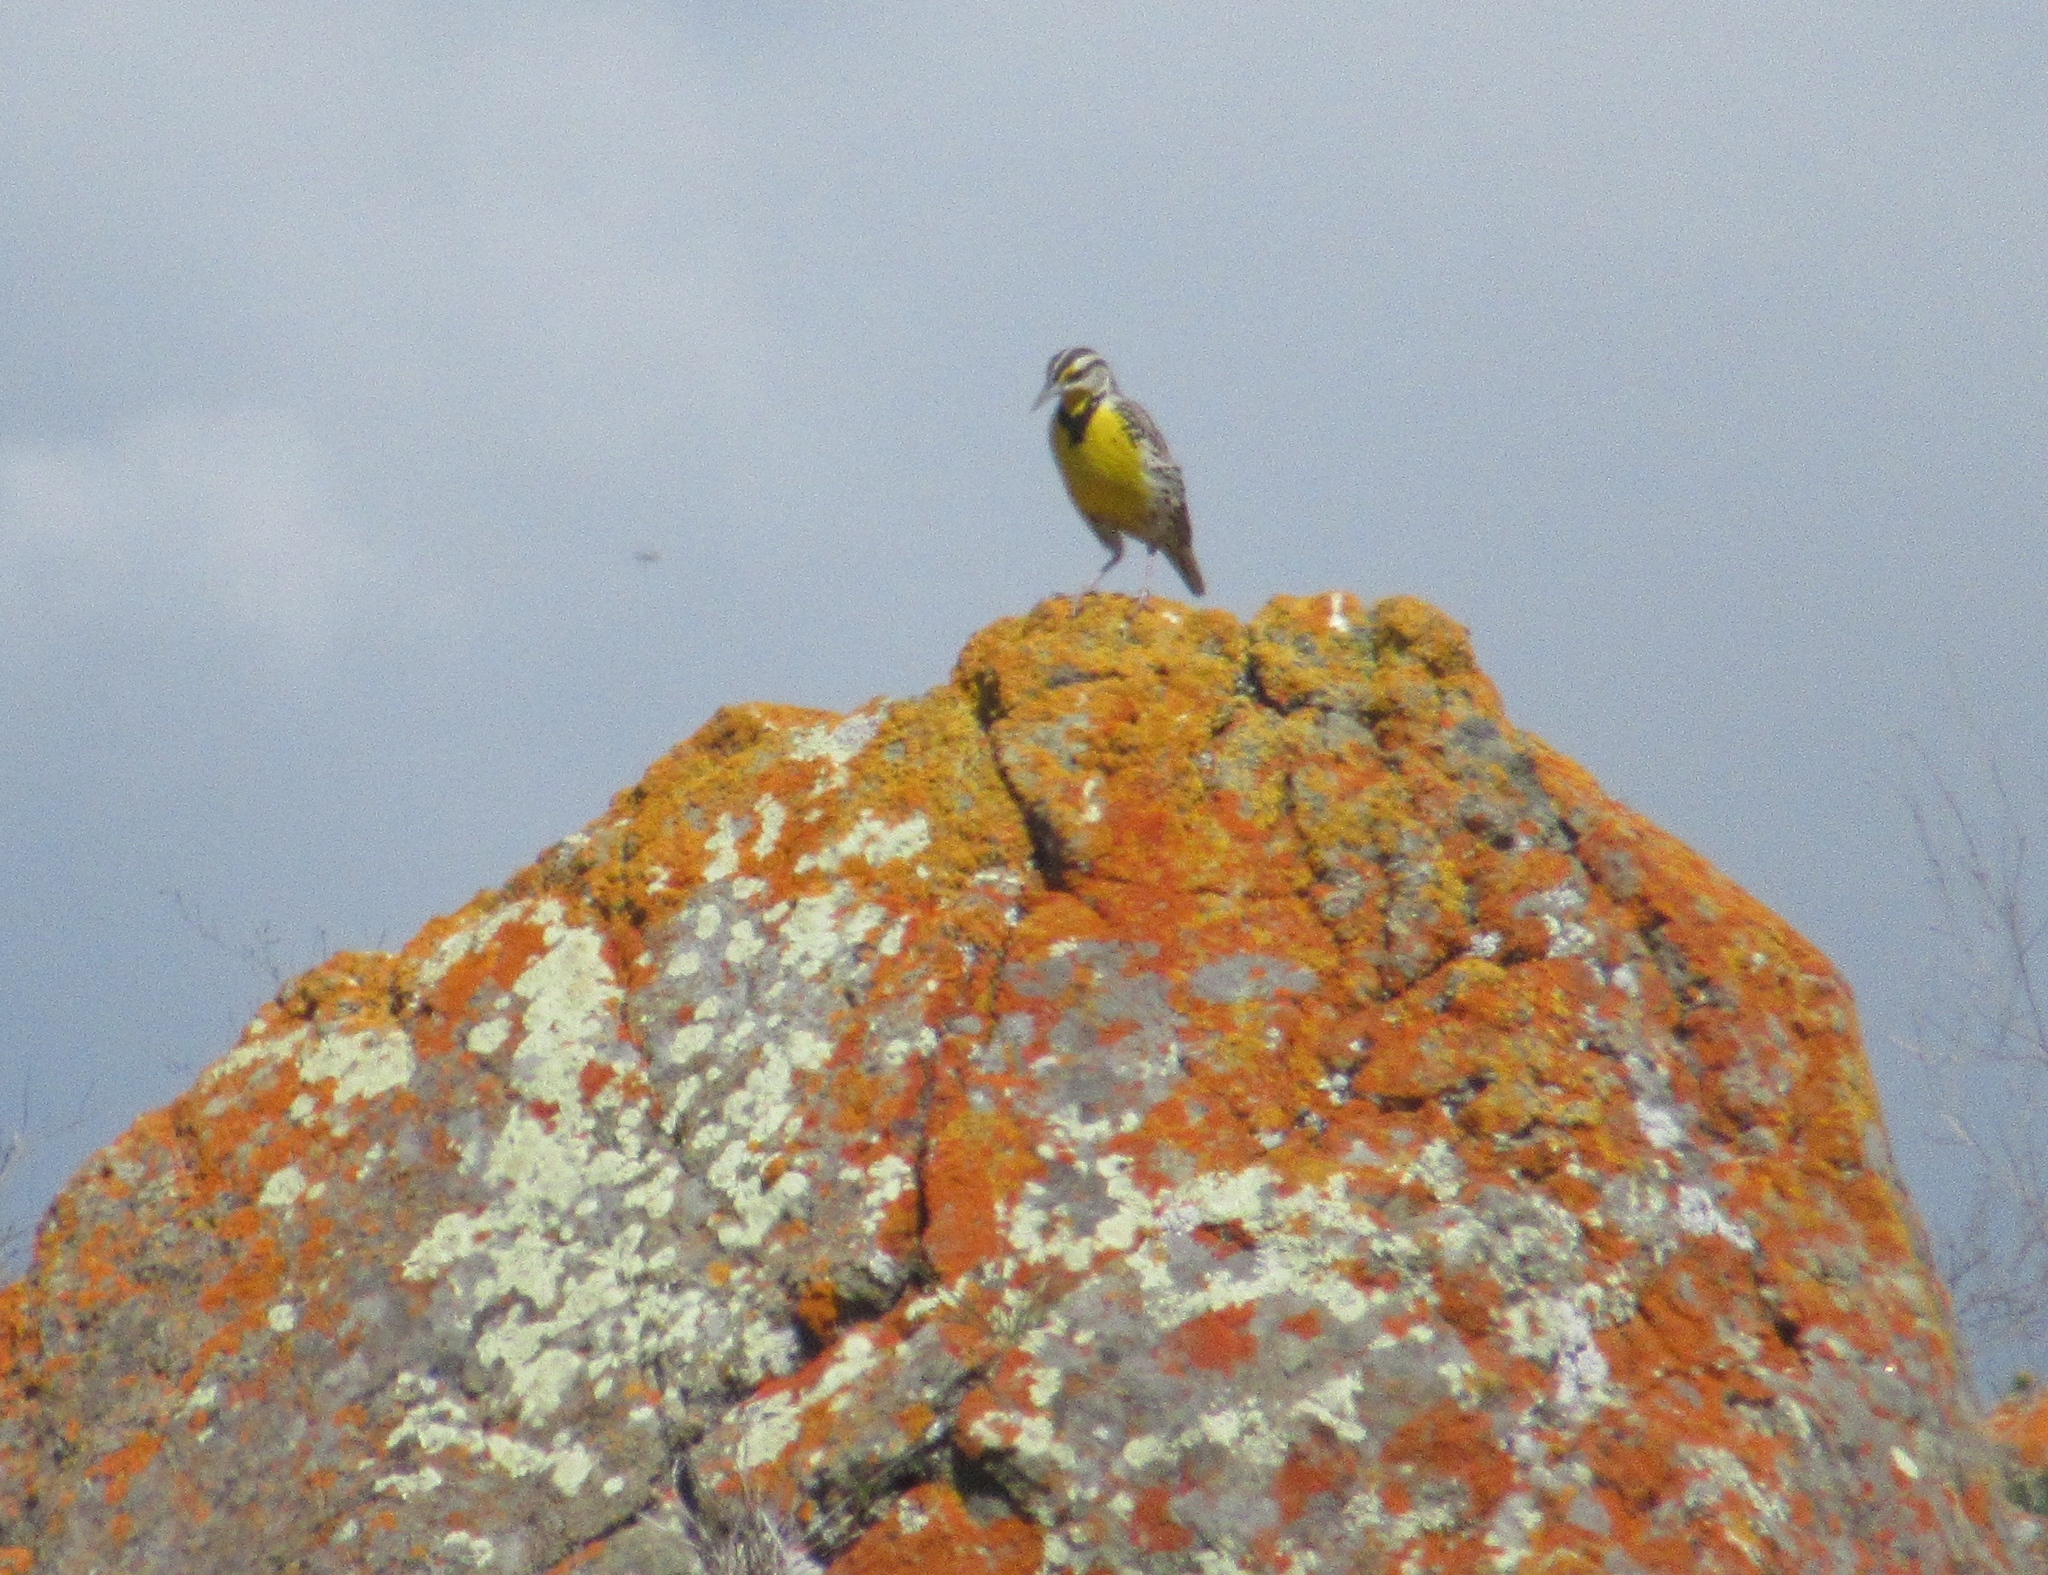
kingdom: Animalia
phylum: Chordata
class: Aves
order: Passeriformes
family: Icteridae
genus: Sturnella
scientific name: Sturnella neglecta
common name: Western meadowlark
